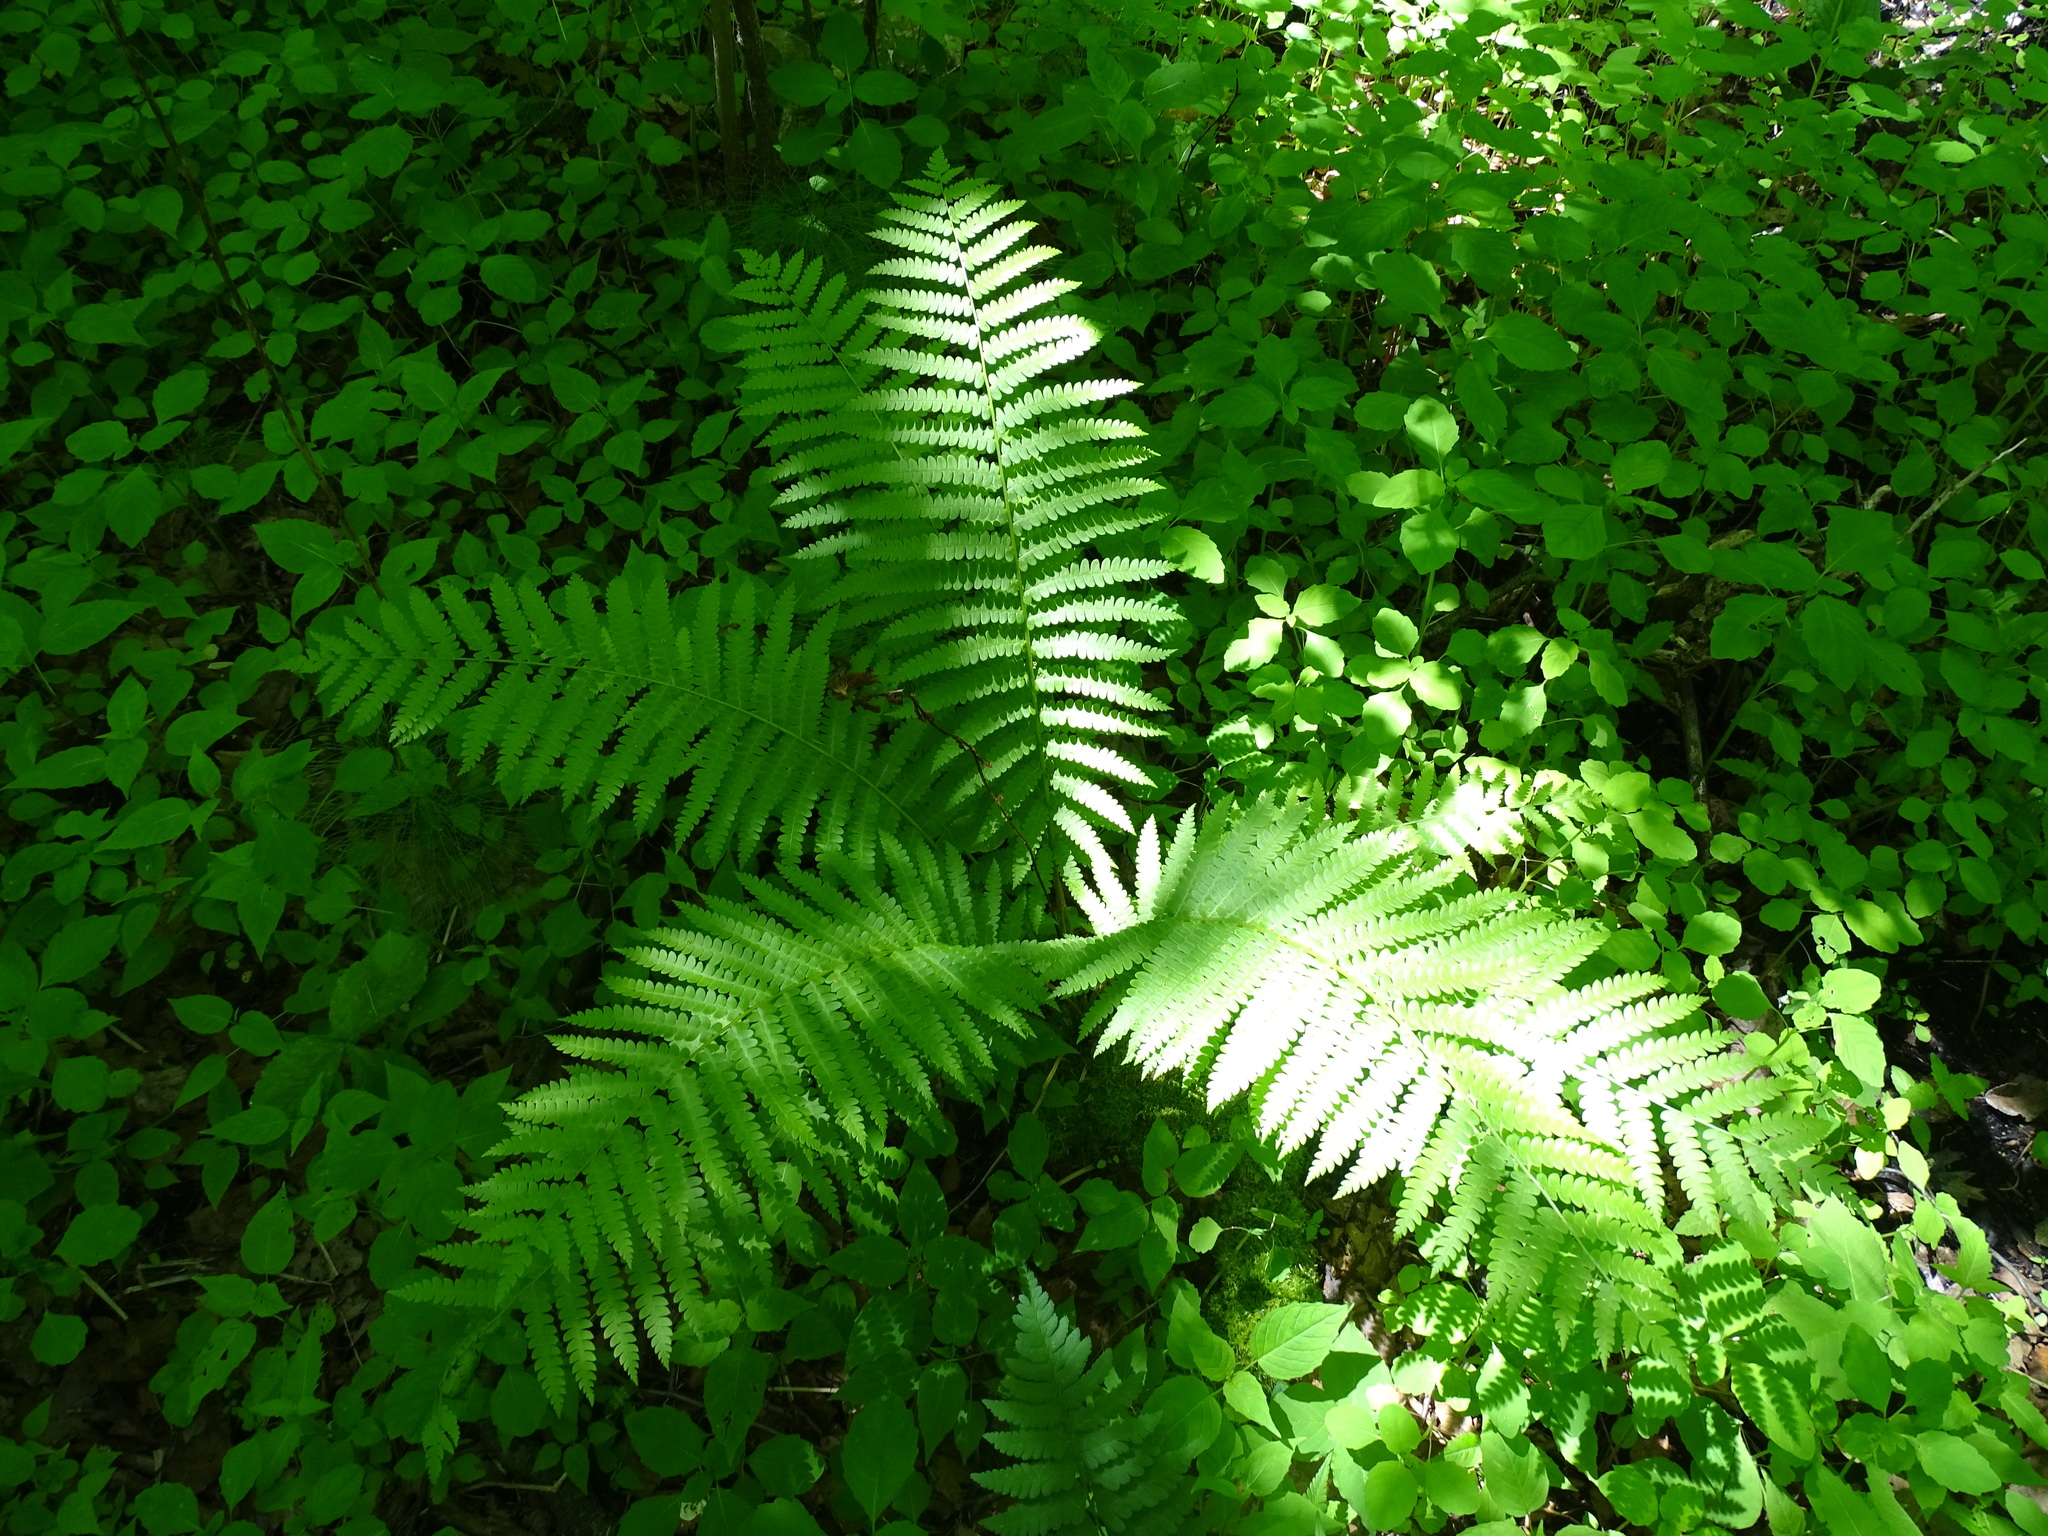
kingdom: Plantae
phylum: Tracheophyta
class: Polypodiopsida
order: Osmundales
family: Osmundaceae
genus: Osmundastrum
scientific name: Osmundastrum cinnamomeum
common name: Cinnamon fern
